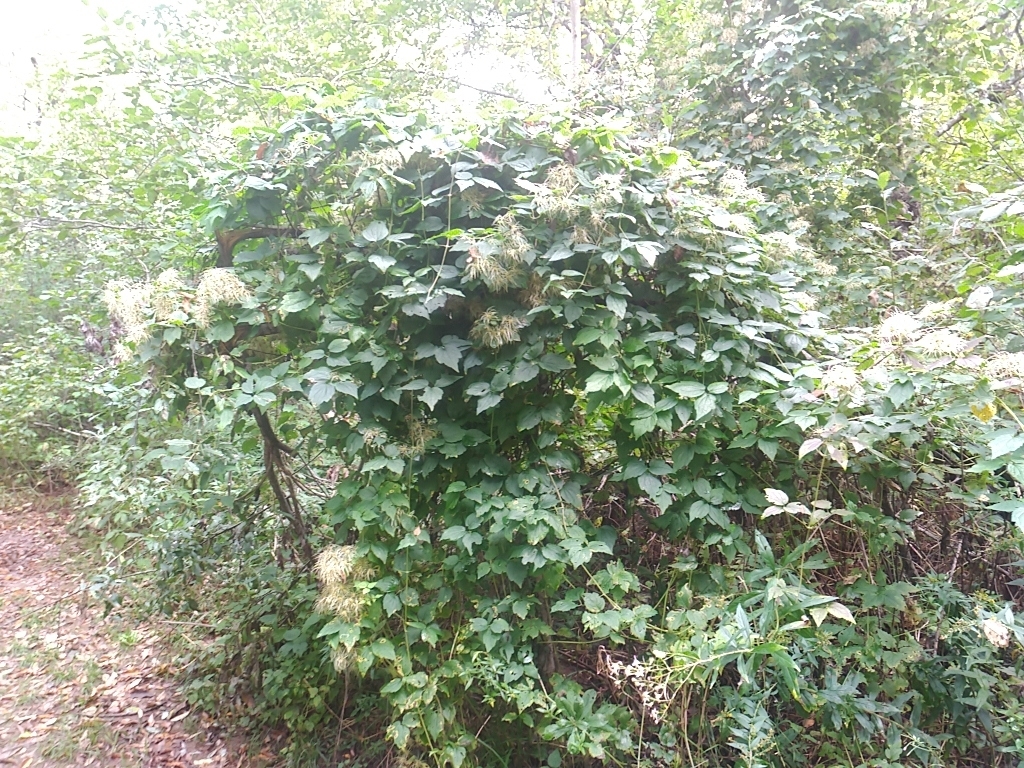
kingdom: Plantae
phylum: Tracheophyta
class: Magnoliopsida
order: Ranunculales
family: Ranunculaceae
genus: Clematis
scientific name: Clematis virginiana
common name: Virgin's-bower
